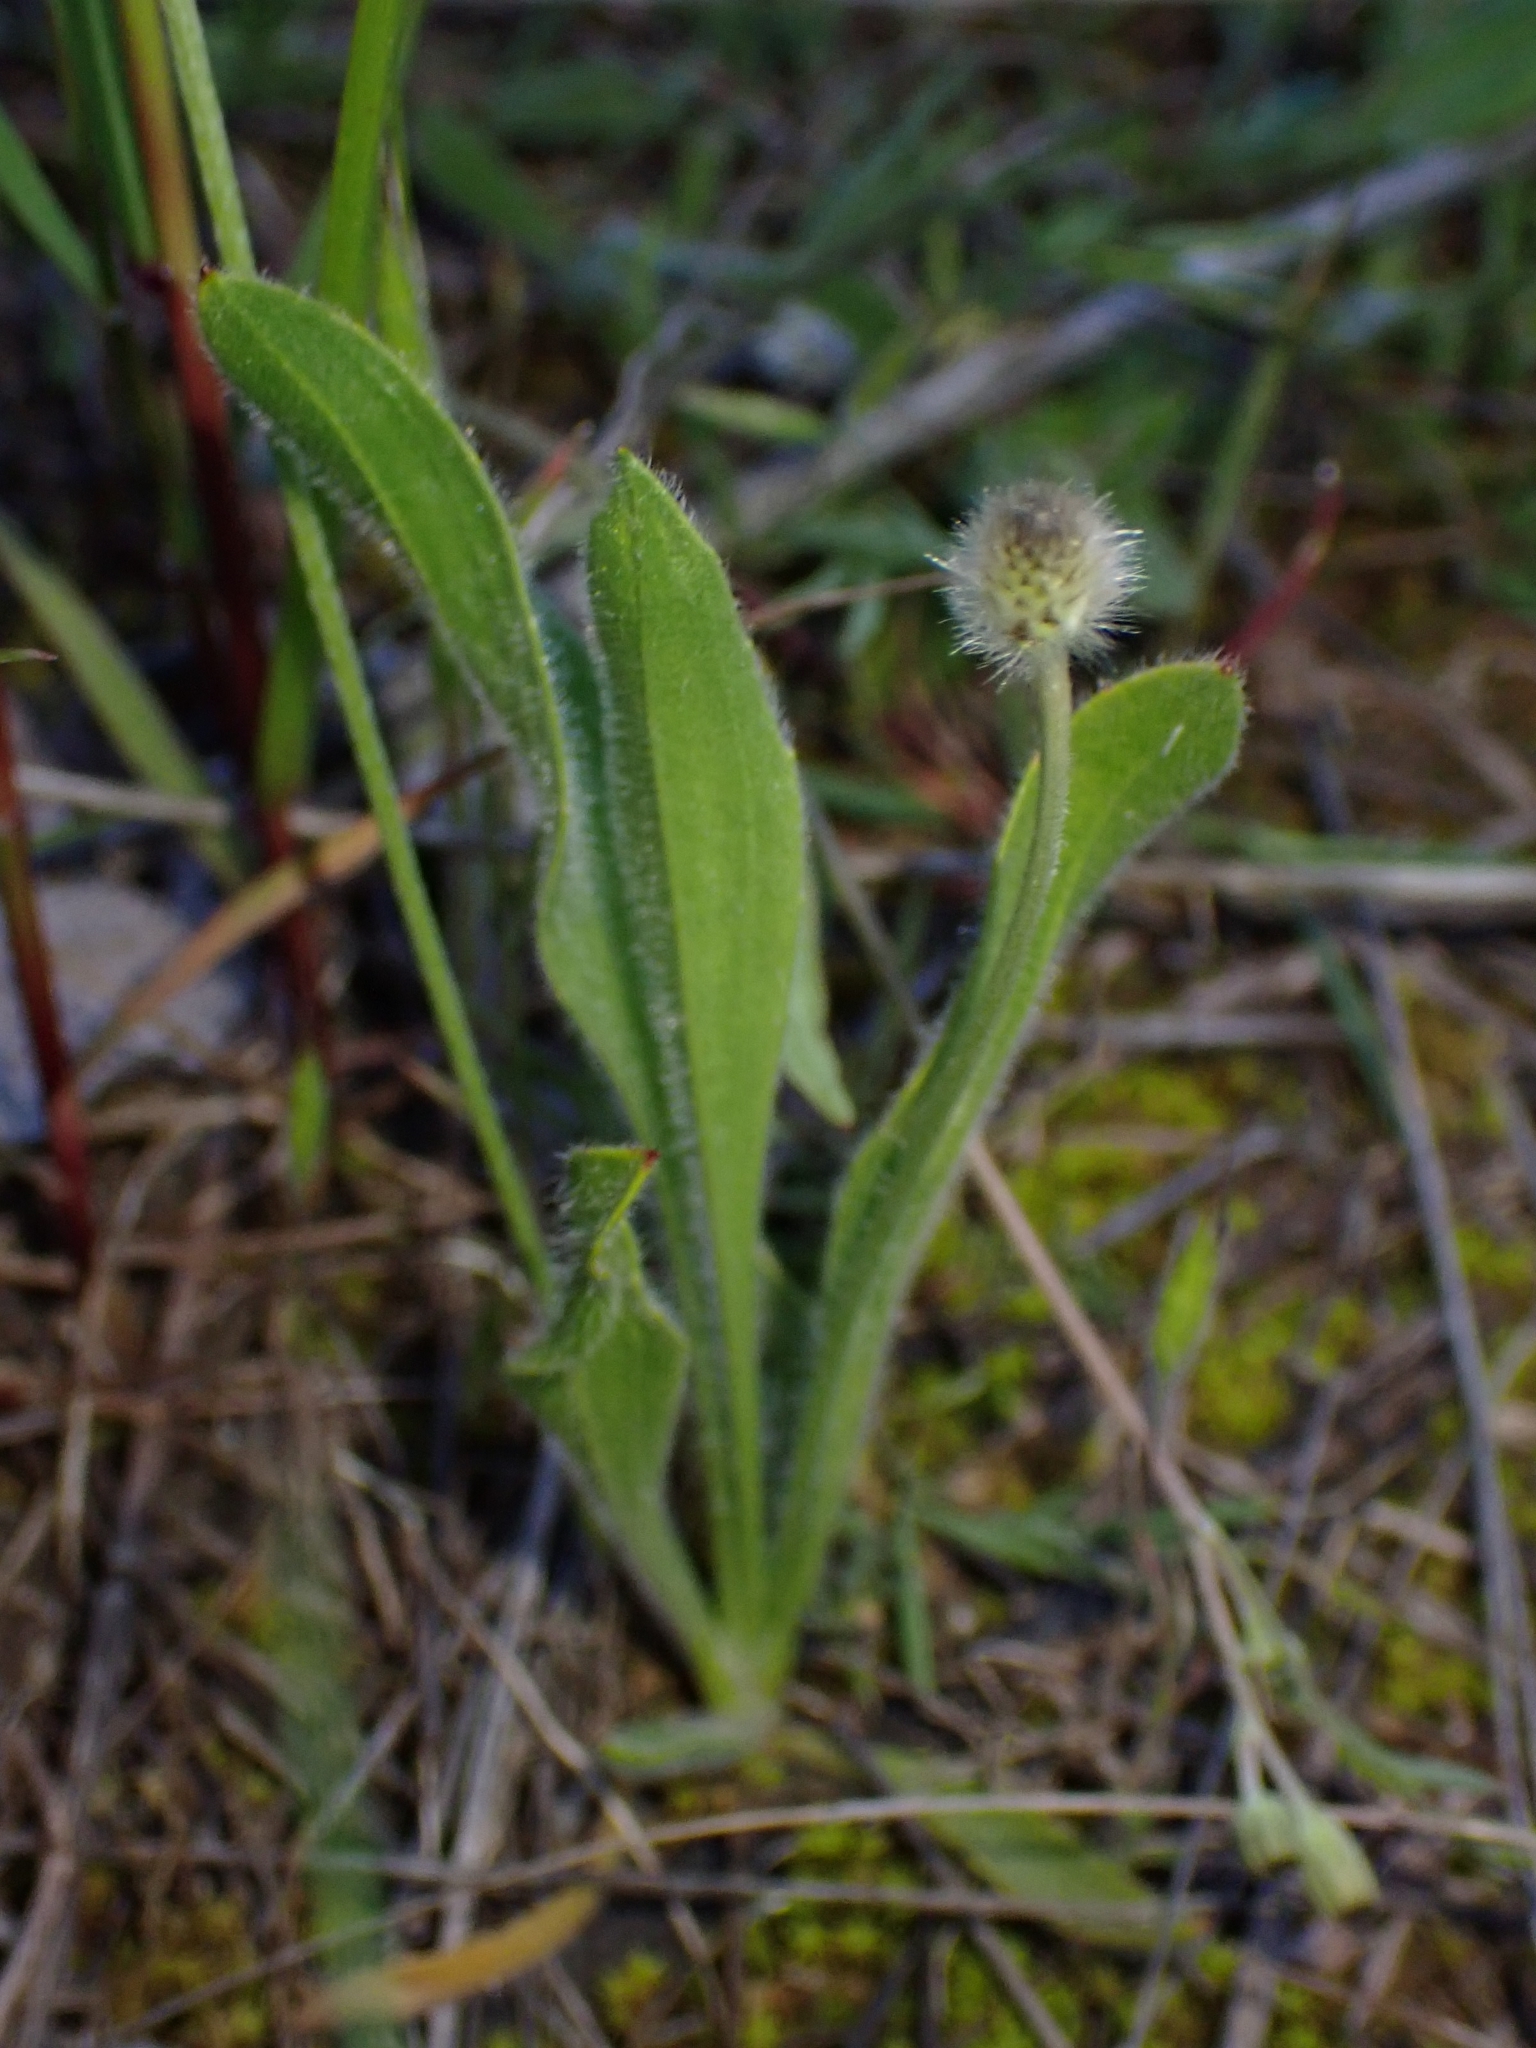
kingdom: Plantae
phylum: Tracheophyta
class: Magnoliopsida
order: Lamiales
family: Plantaginaceae
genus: Plantago
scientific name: Plantago lagopus
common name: Hare-foot plantain
